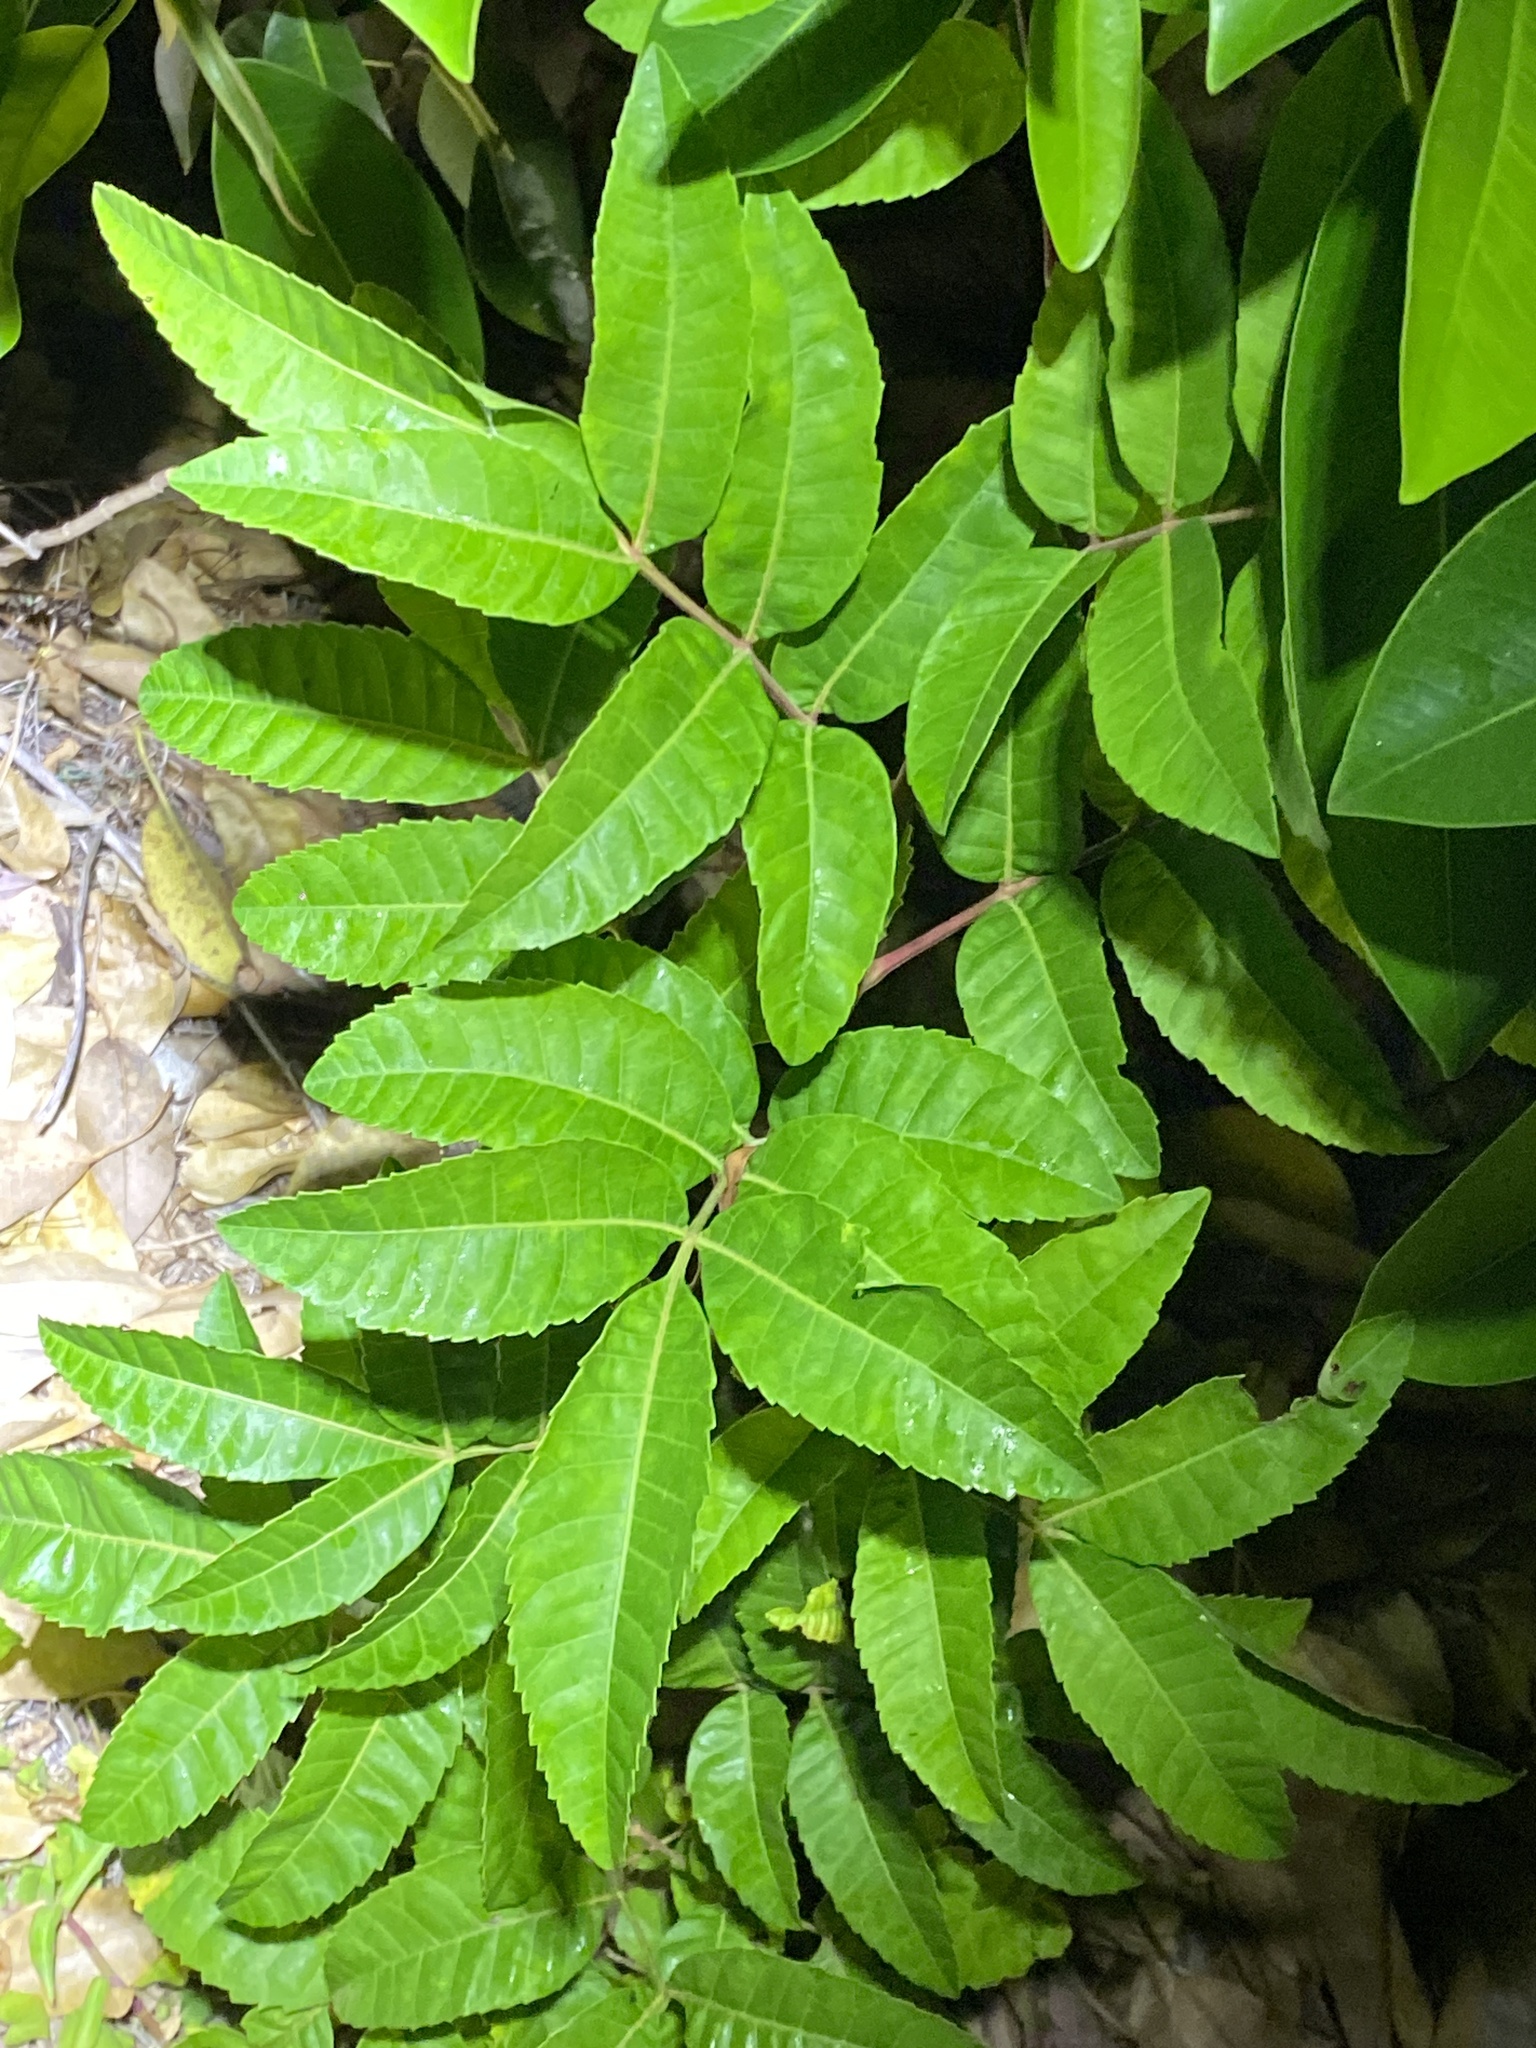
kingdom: Plantae
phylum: Tracheophyta
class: Magnoliopsida
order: Sapindales
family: Anacardiaceae
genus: Schinus
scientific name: Schinus terebinthifolia
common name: Brazilian peppertree
